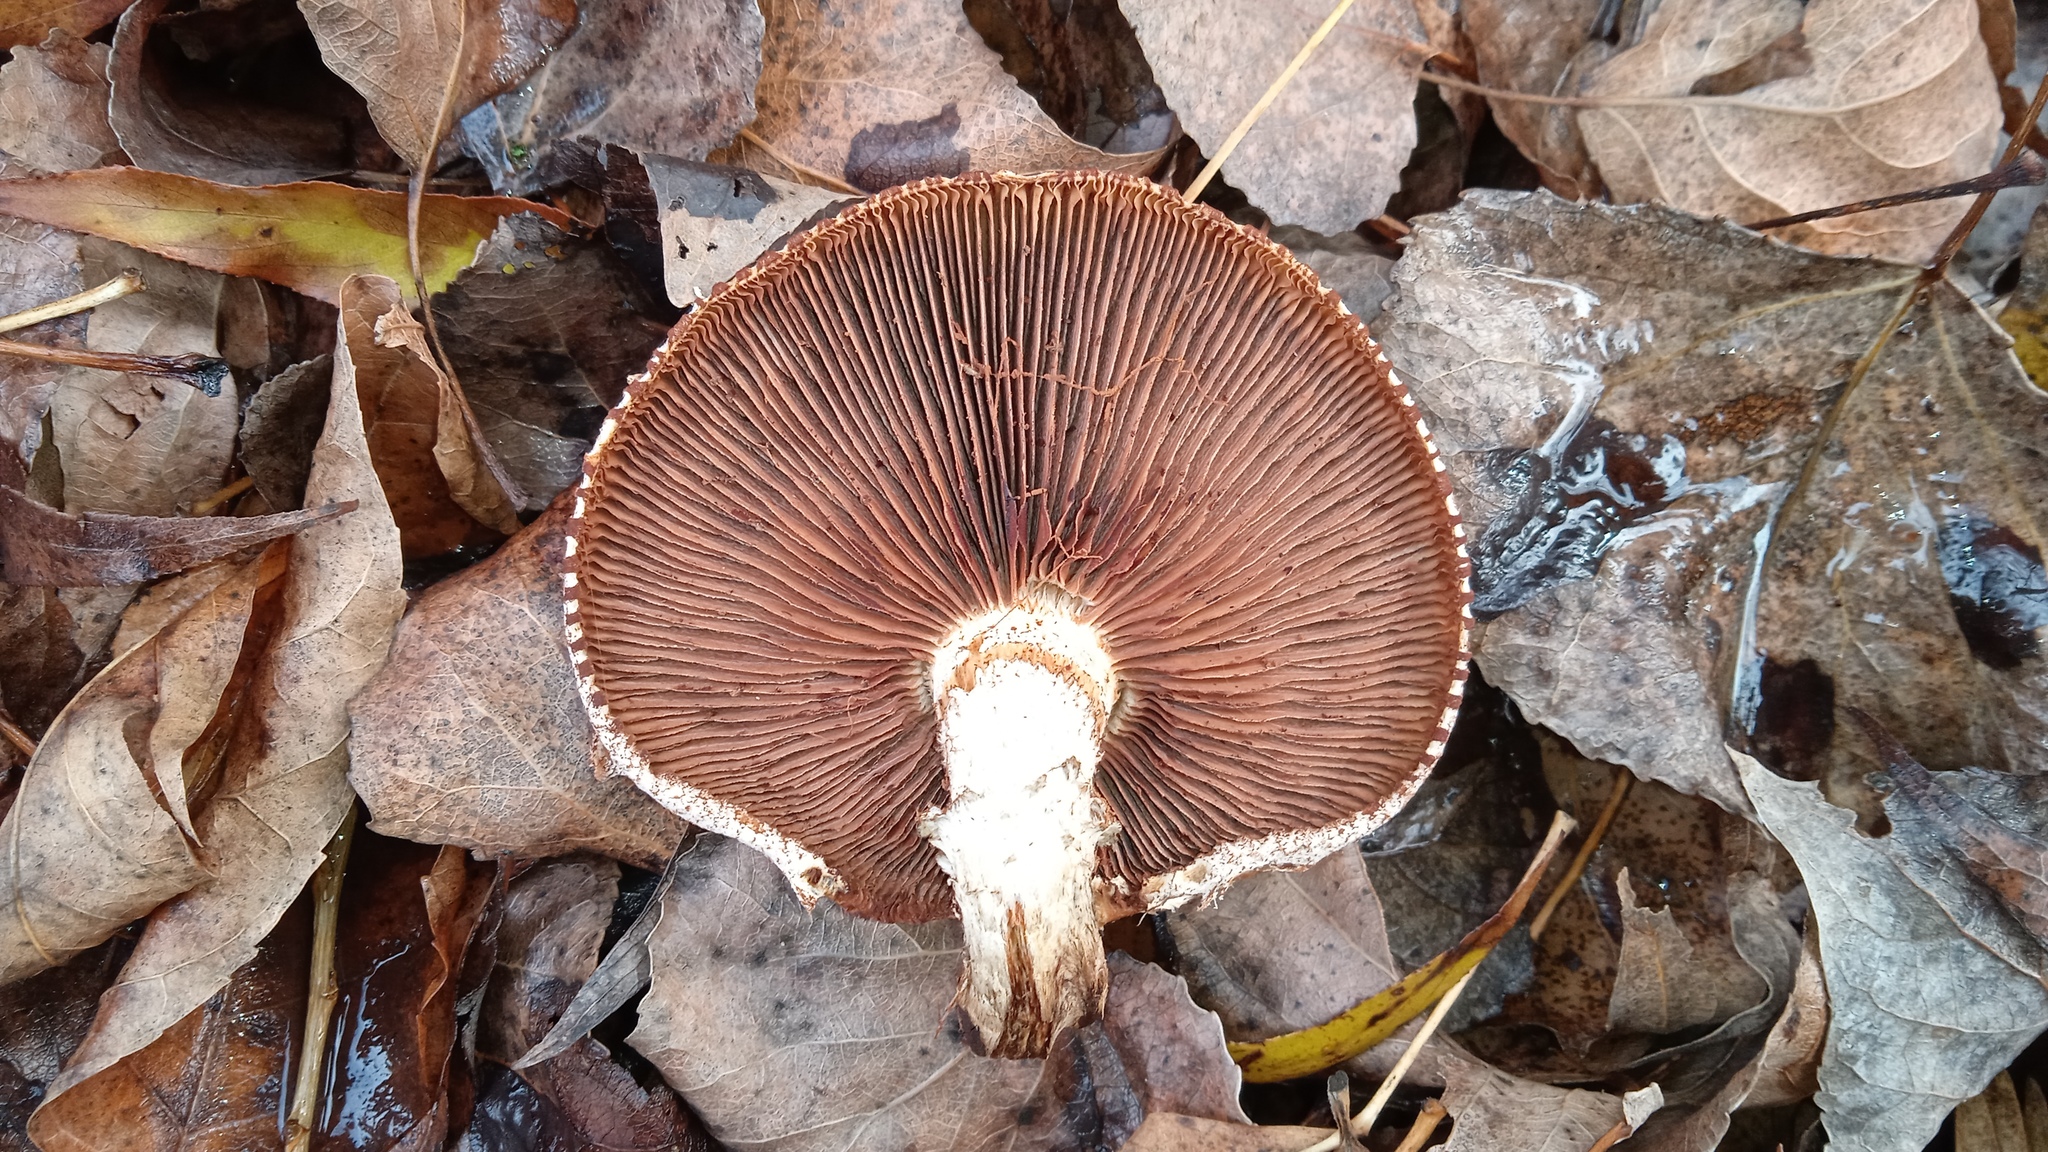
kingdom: Fungi
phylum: Basidiomycota
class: Agaricomycetes
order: Agaricales
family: Strophariaceae
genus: Pholiota
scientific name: Pholiota populnea
